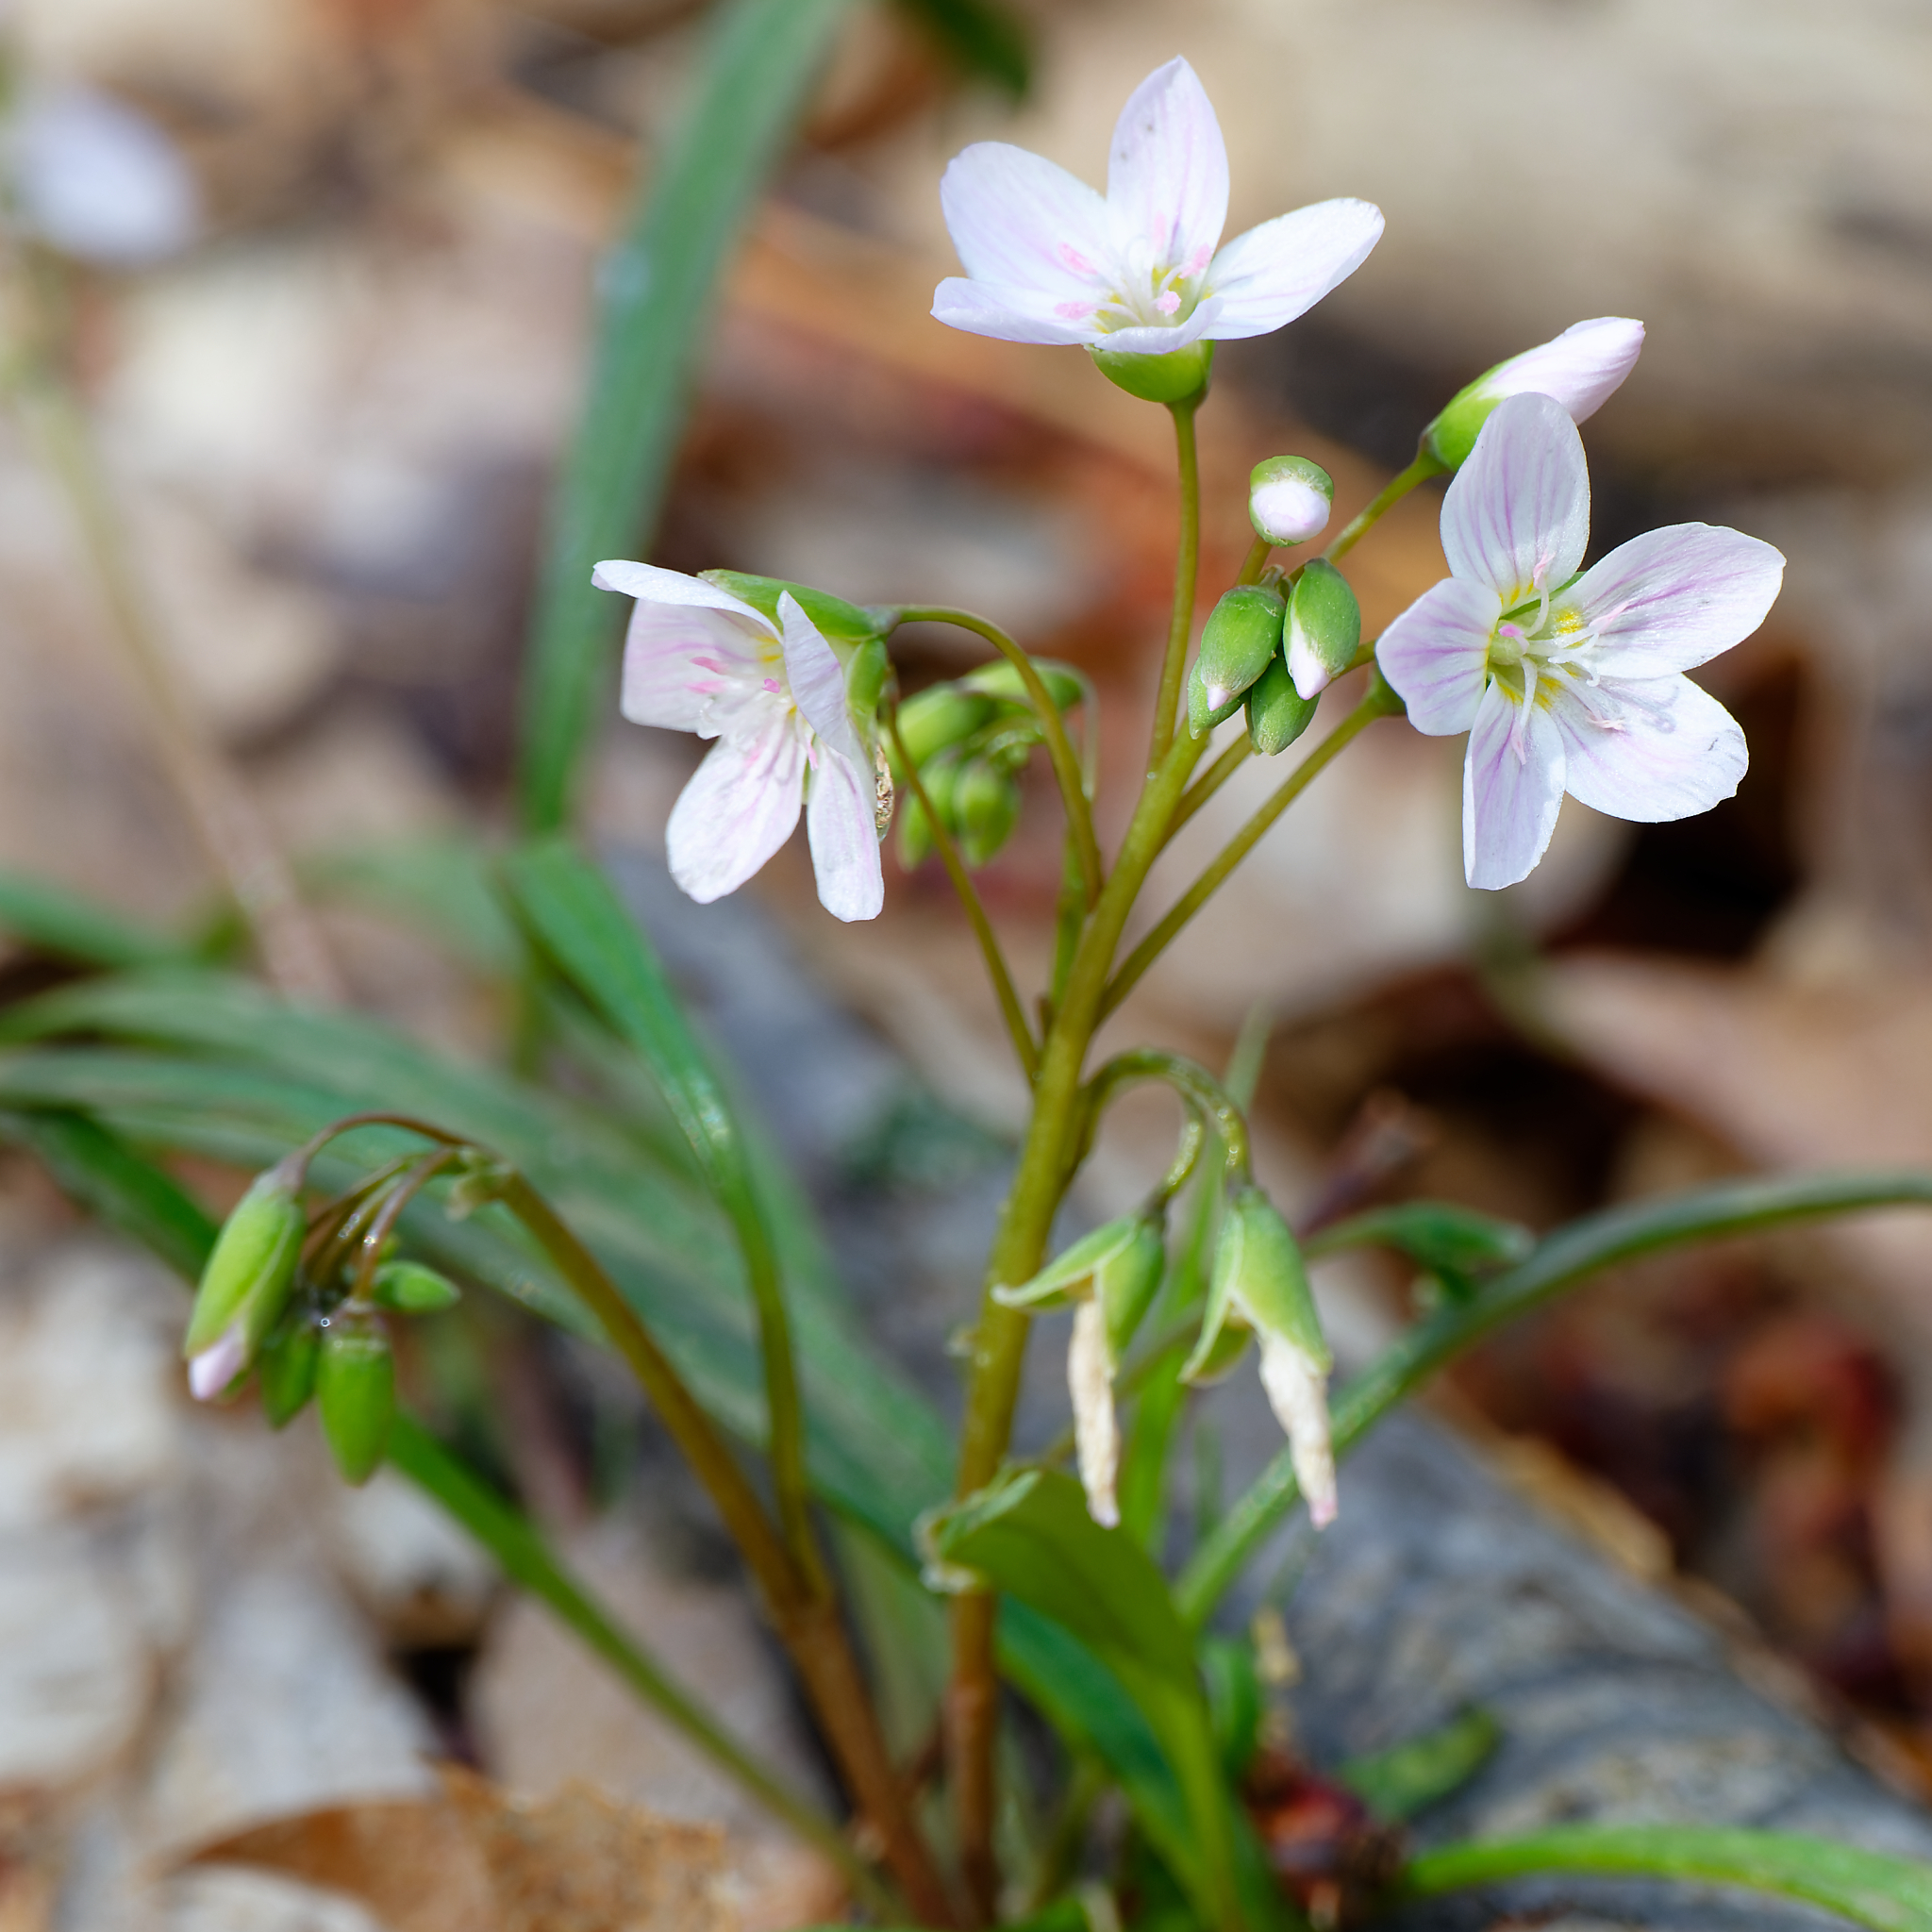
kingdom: Plantae
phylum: Tracheophyta
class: Magnoliopsida
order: Caryophyllales
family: Montiaceae
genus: Claytonia
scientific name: Claytonia virginica
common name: Virginia springbeauty
